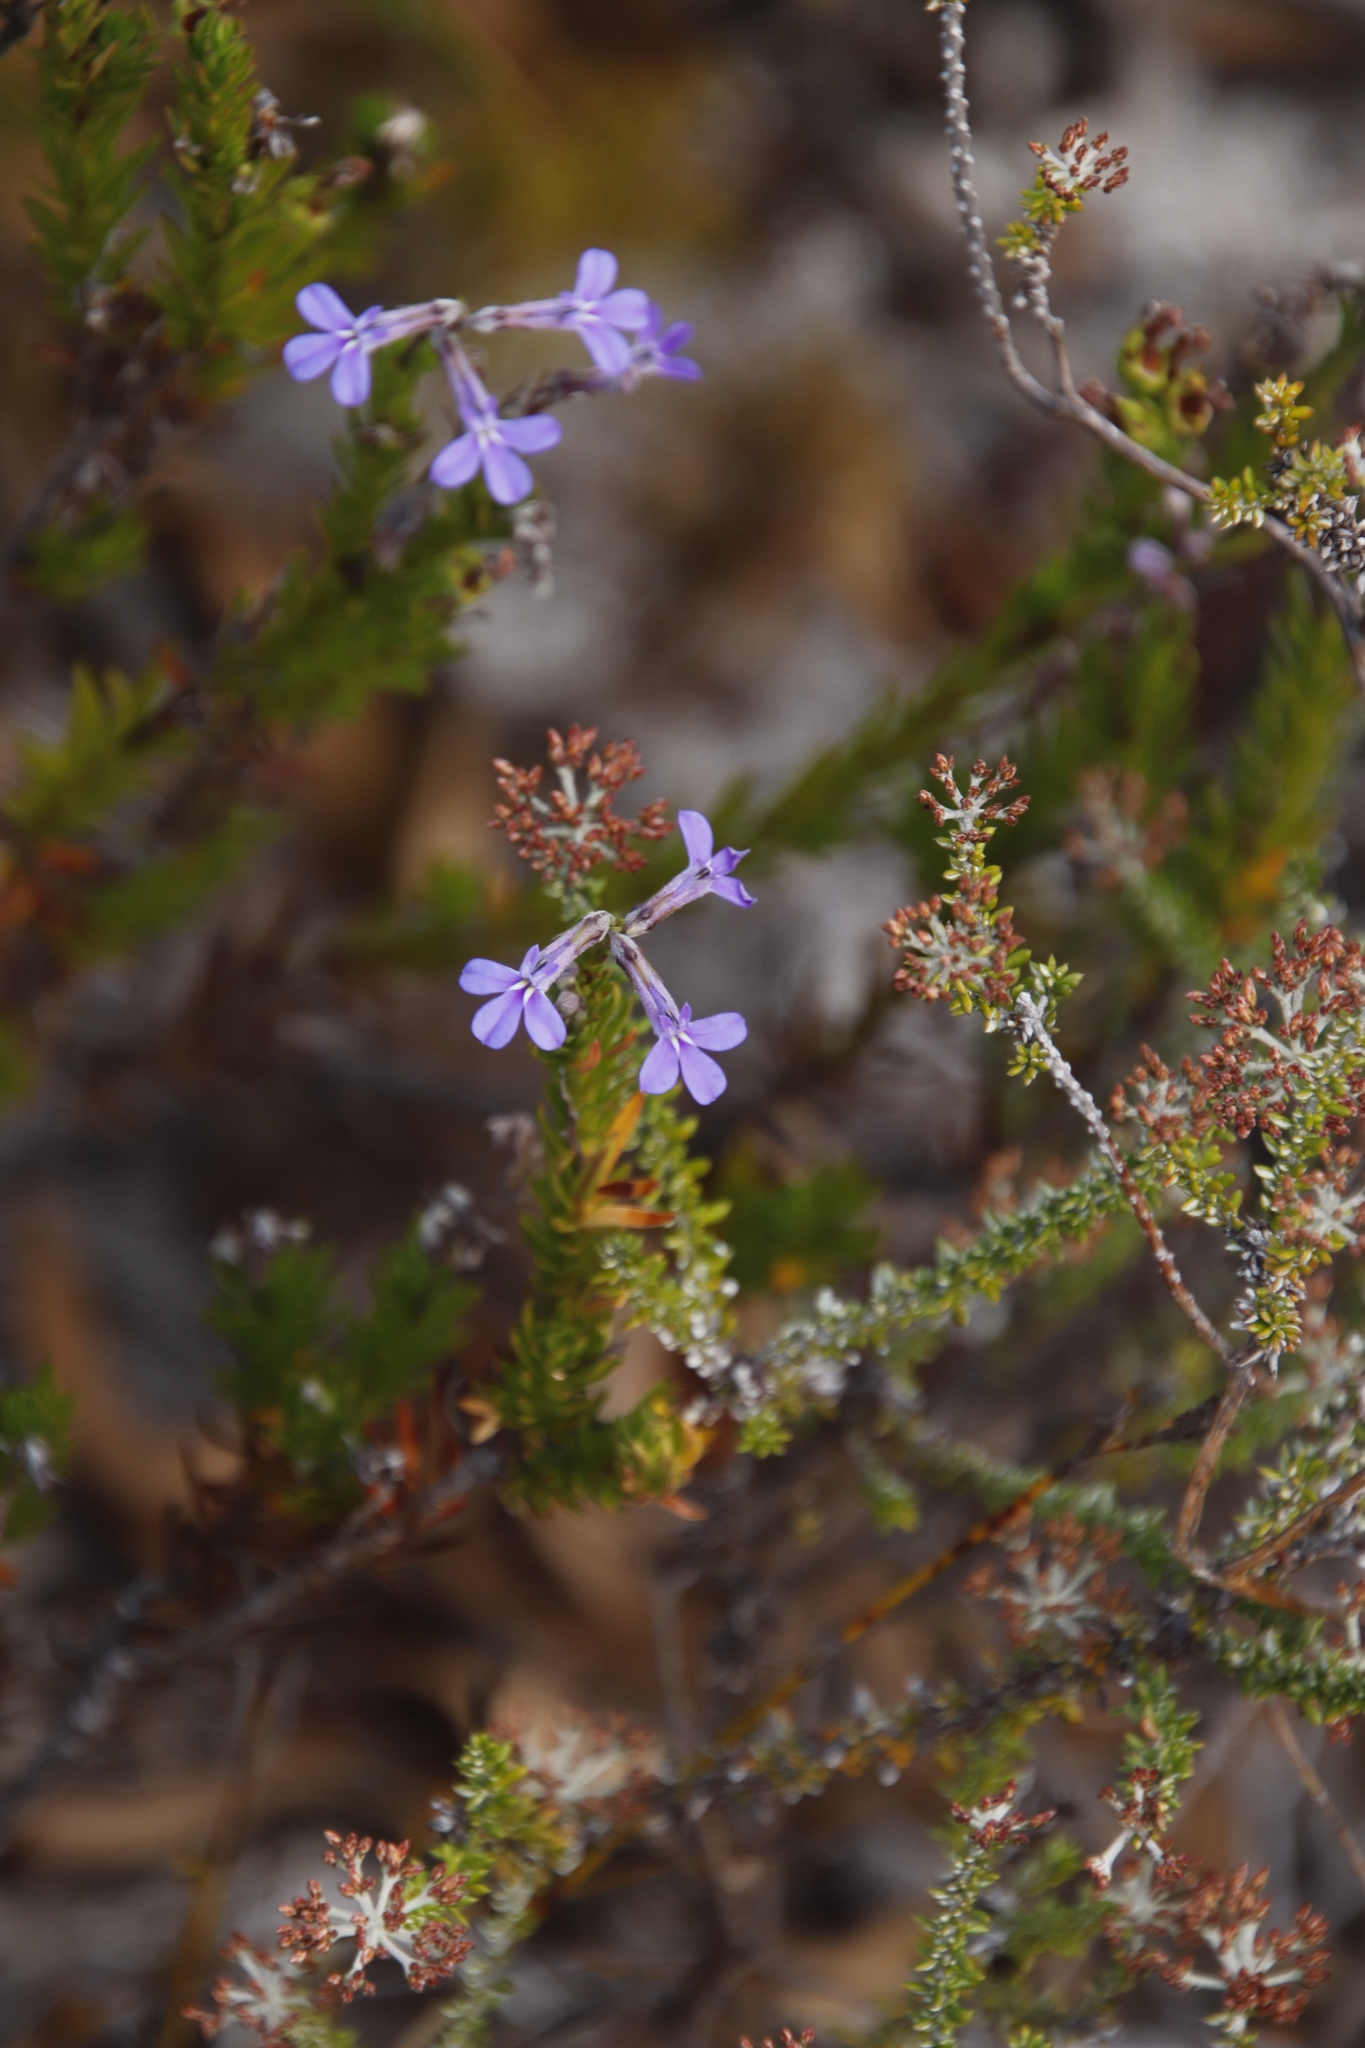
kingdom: Plantae
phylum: Tracheophyta
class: Magnoliopsida
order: Asterales
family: Campanulaceae
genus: Lobelia
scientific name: Lobelia pinifolia
